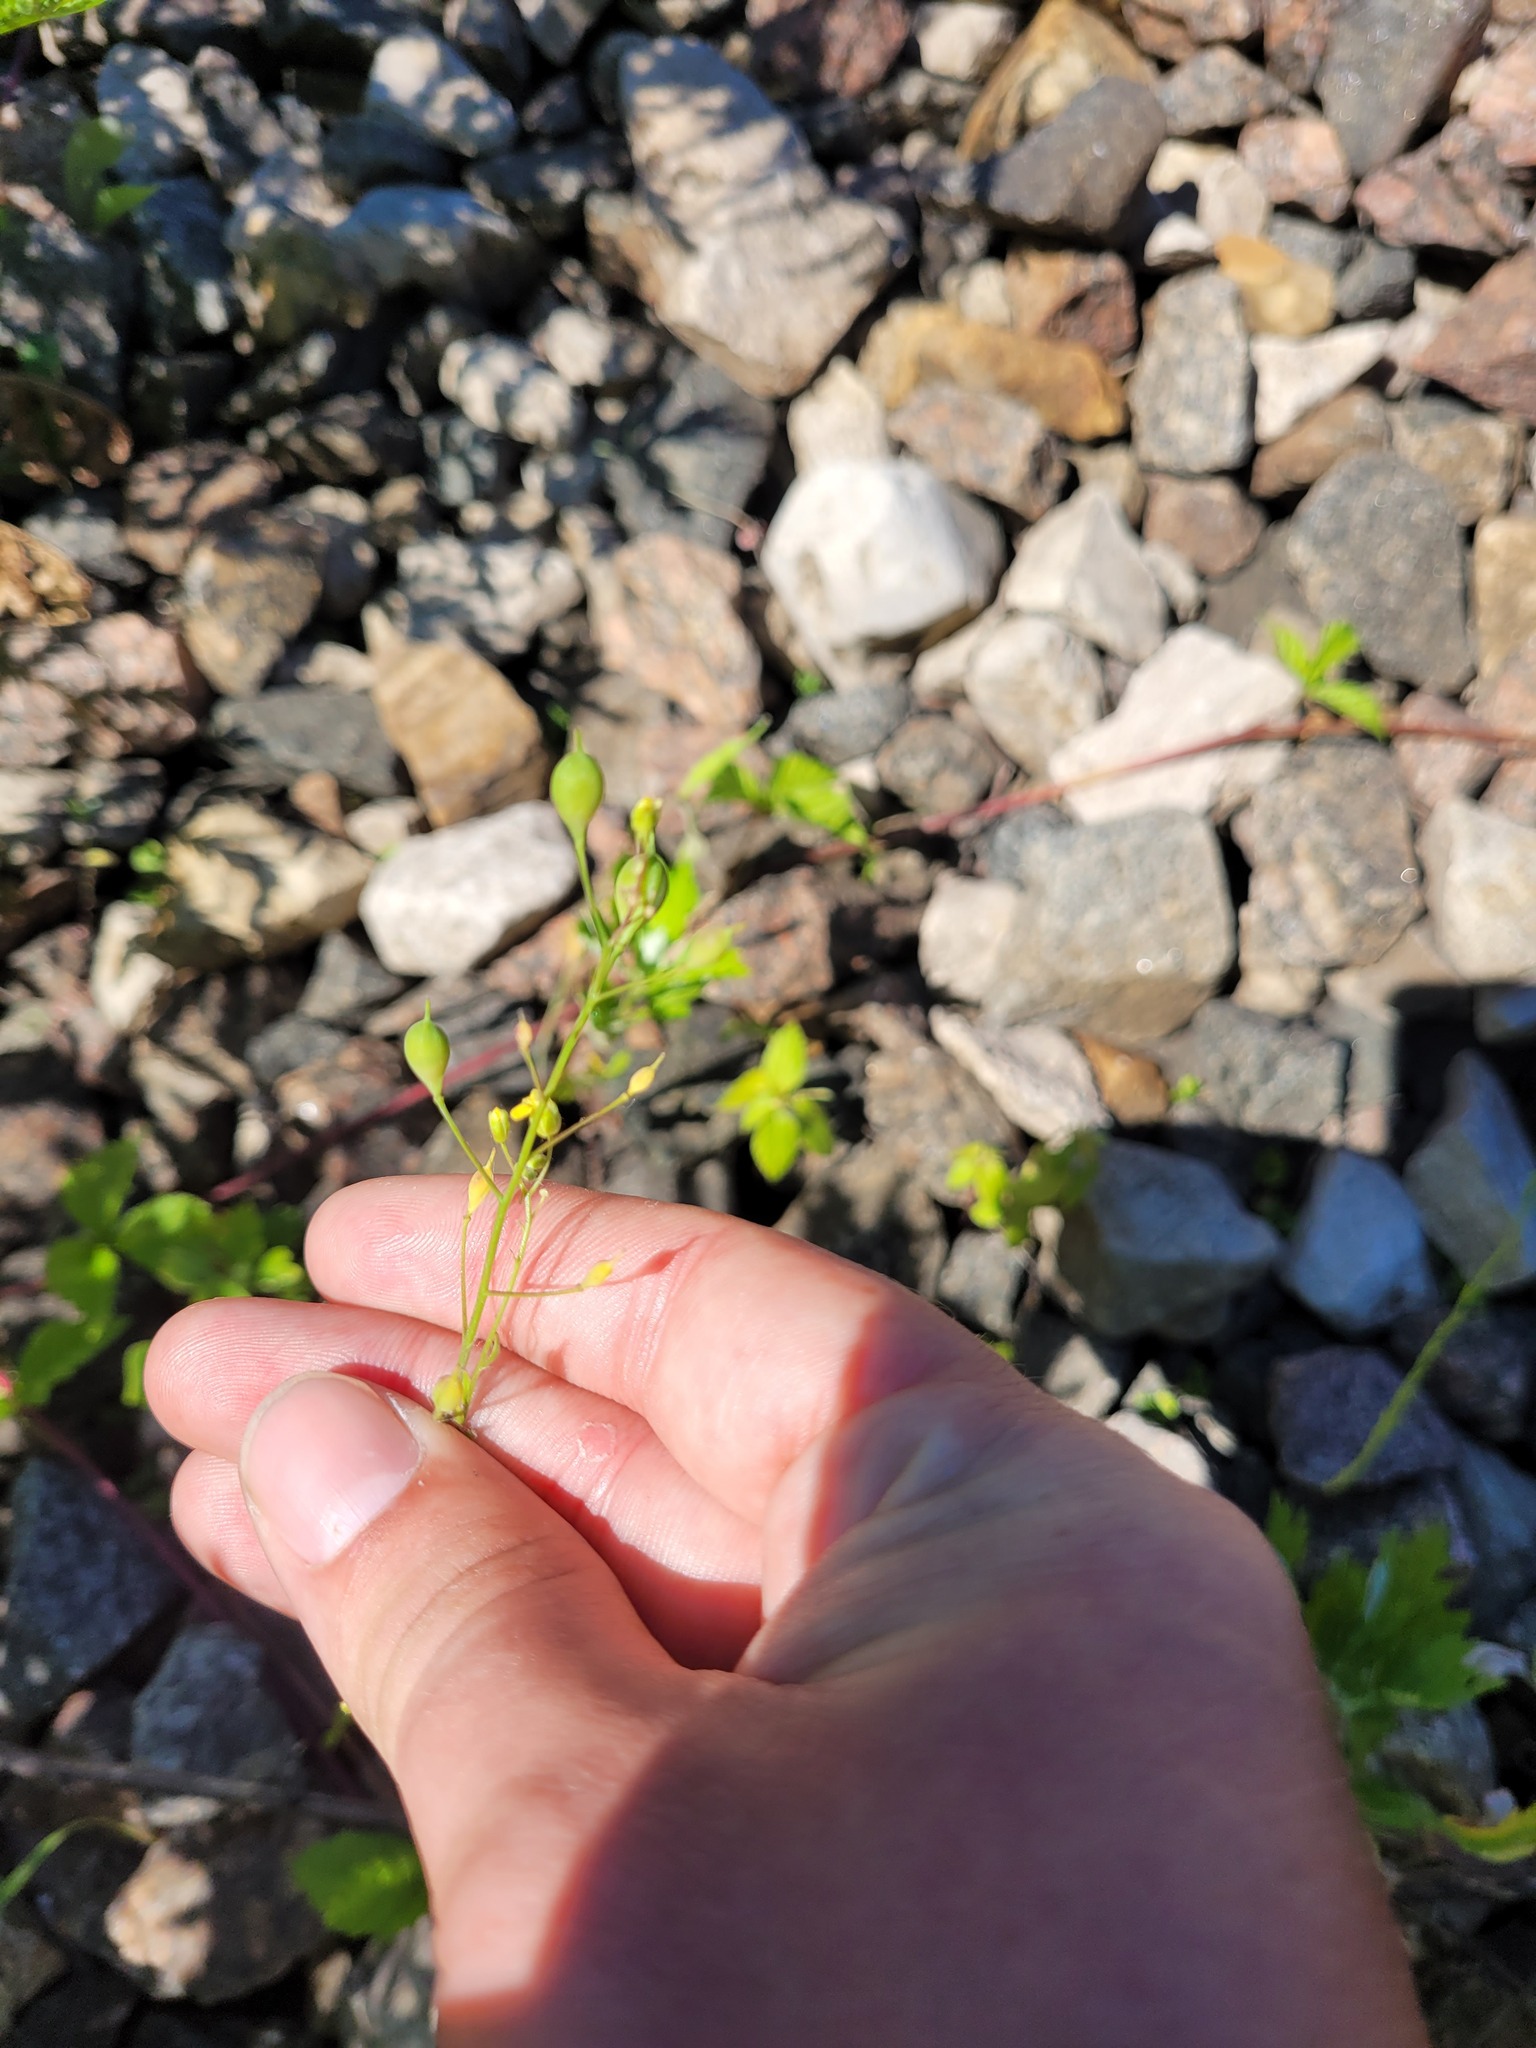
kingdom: Plantae
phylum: Tracheophyta
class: Magnoliopsida
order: Brassicales
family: Brassicaceae
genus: Camelina
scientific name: Camelina sativa
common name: Gold-of-pleasure
